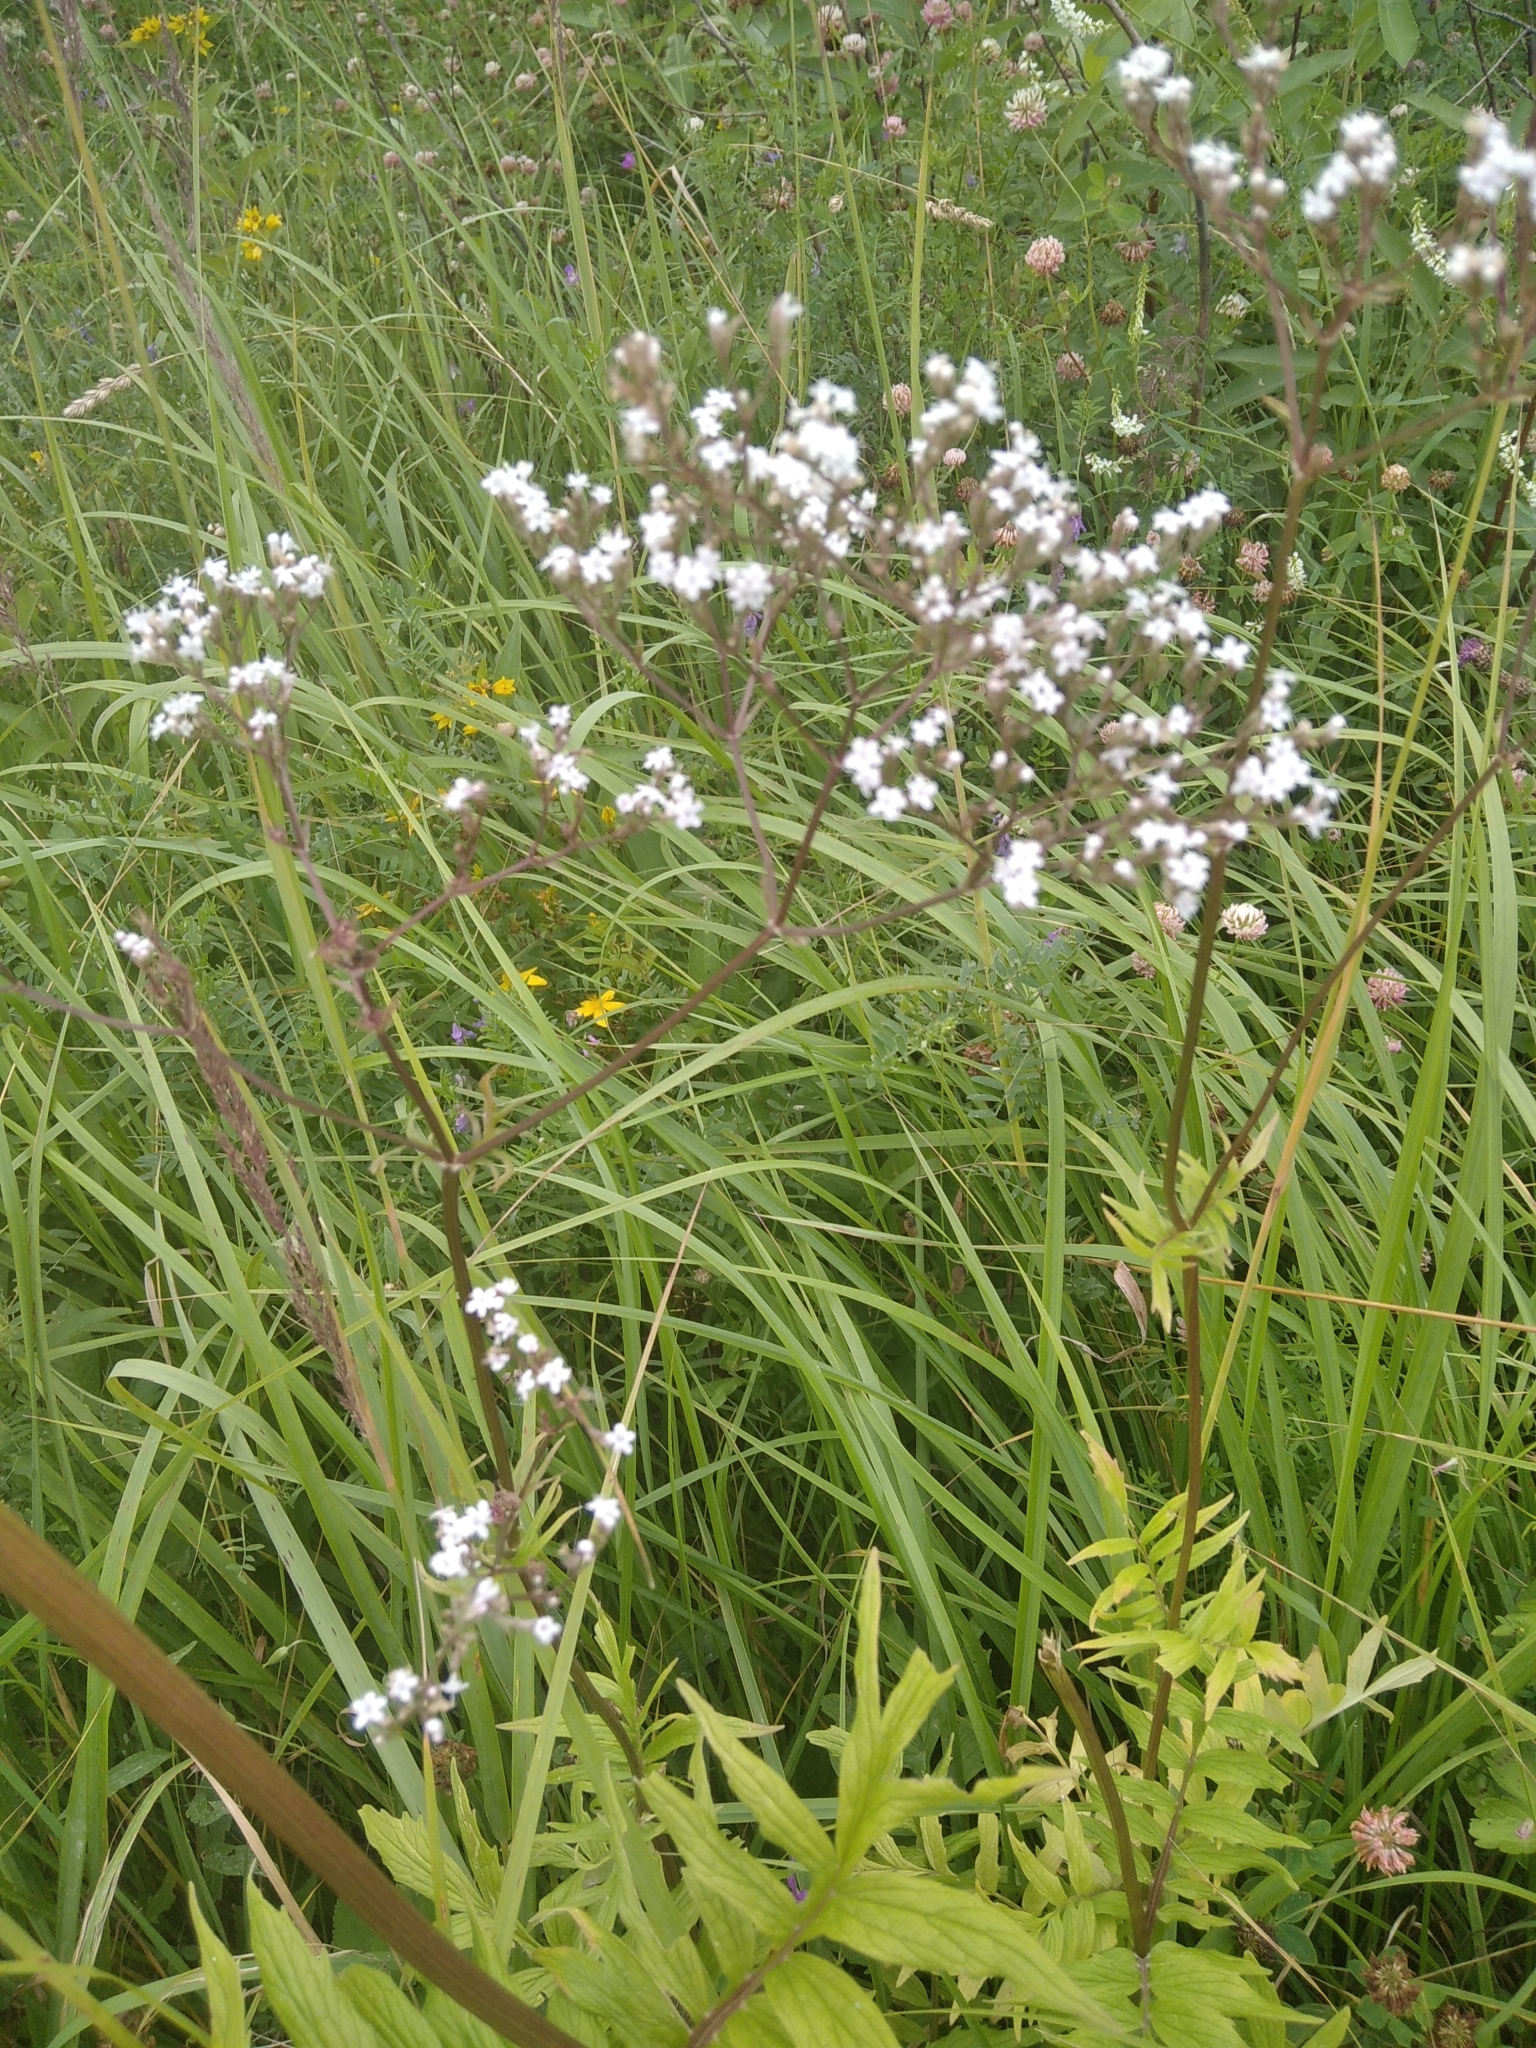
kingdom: Plantae
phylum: Tracheophyta
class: Magnoliopsida
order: Dipsacales
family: Caprifoliaceae
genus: Valeriana
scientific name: Valeriana officinalis
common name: Common valerian
